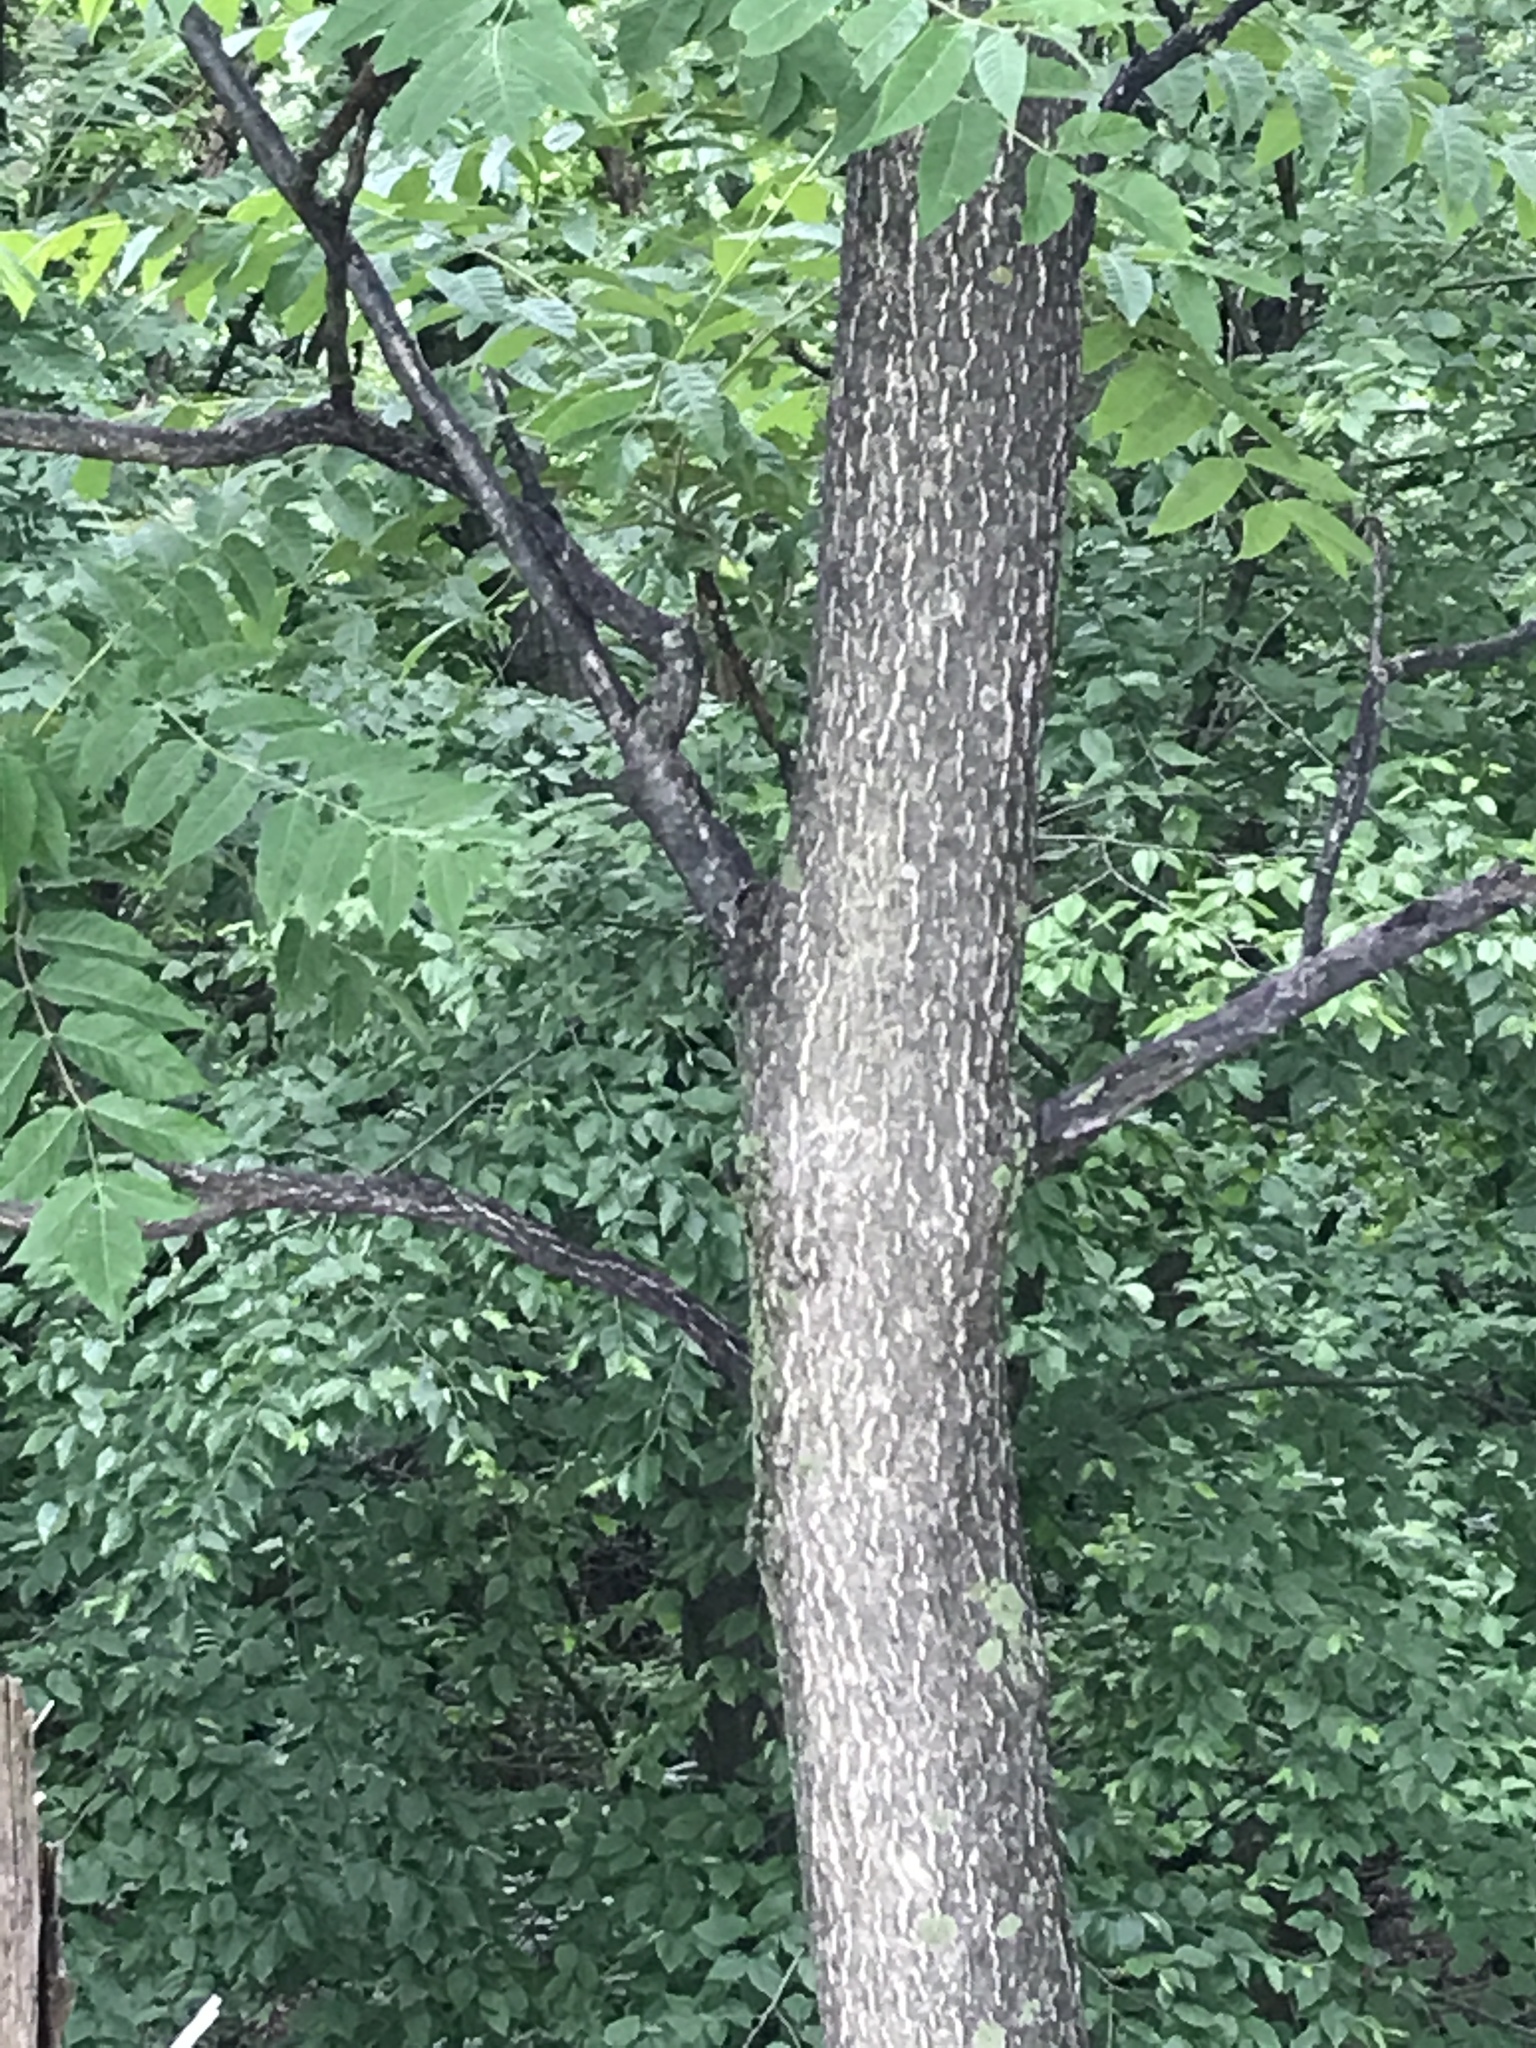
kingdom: Plantae
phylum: Tracheophyta
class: Magnoliopsida
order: Sapindales
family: Simaroubaceae
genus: Ailanthus
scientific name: Ailanthus altissima
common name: Tree-of-heaven
